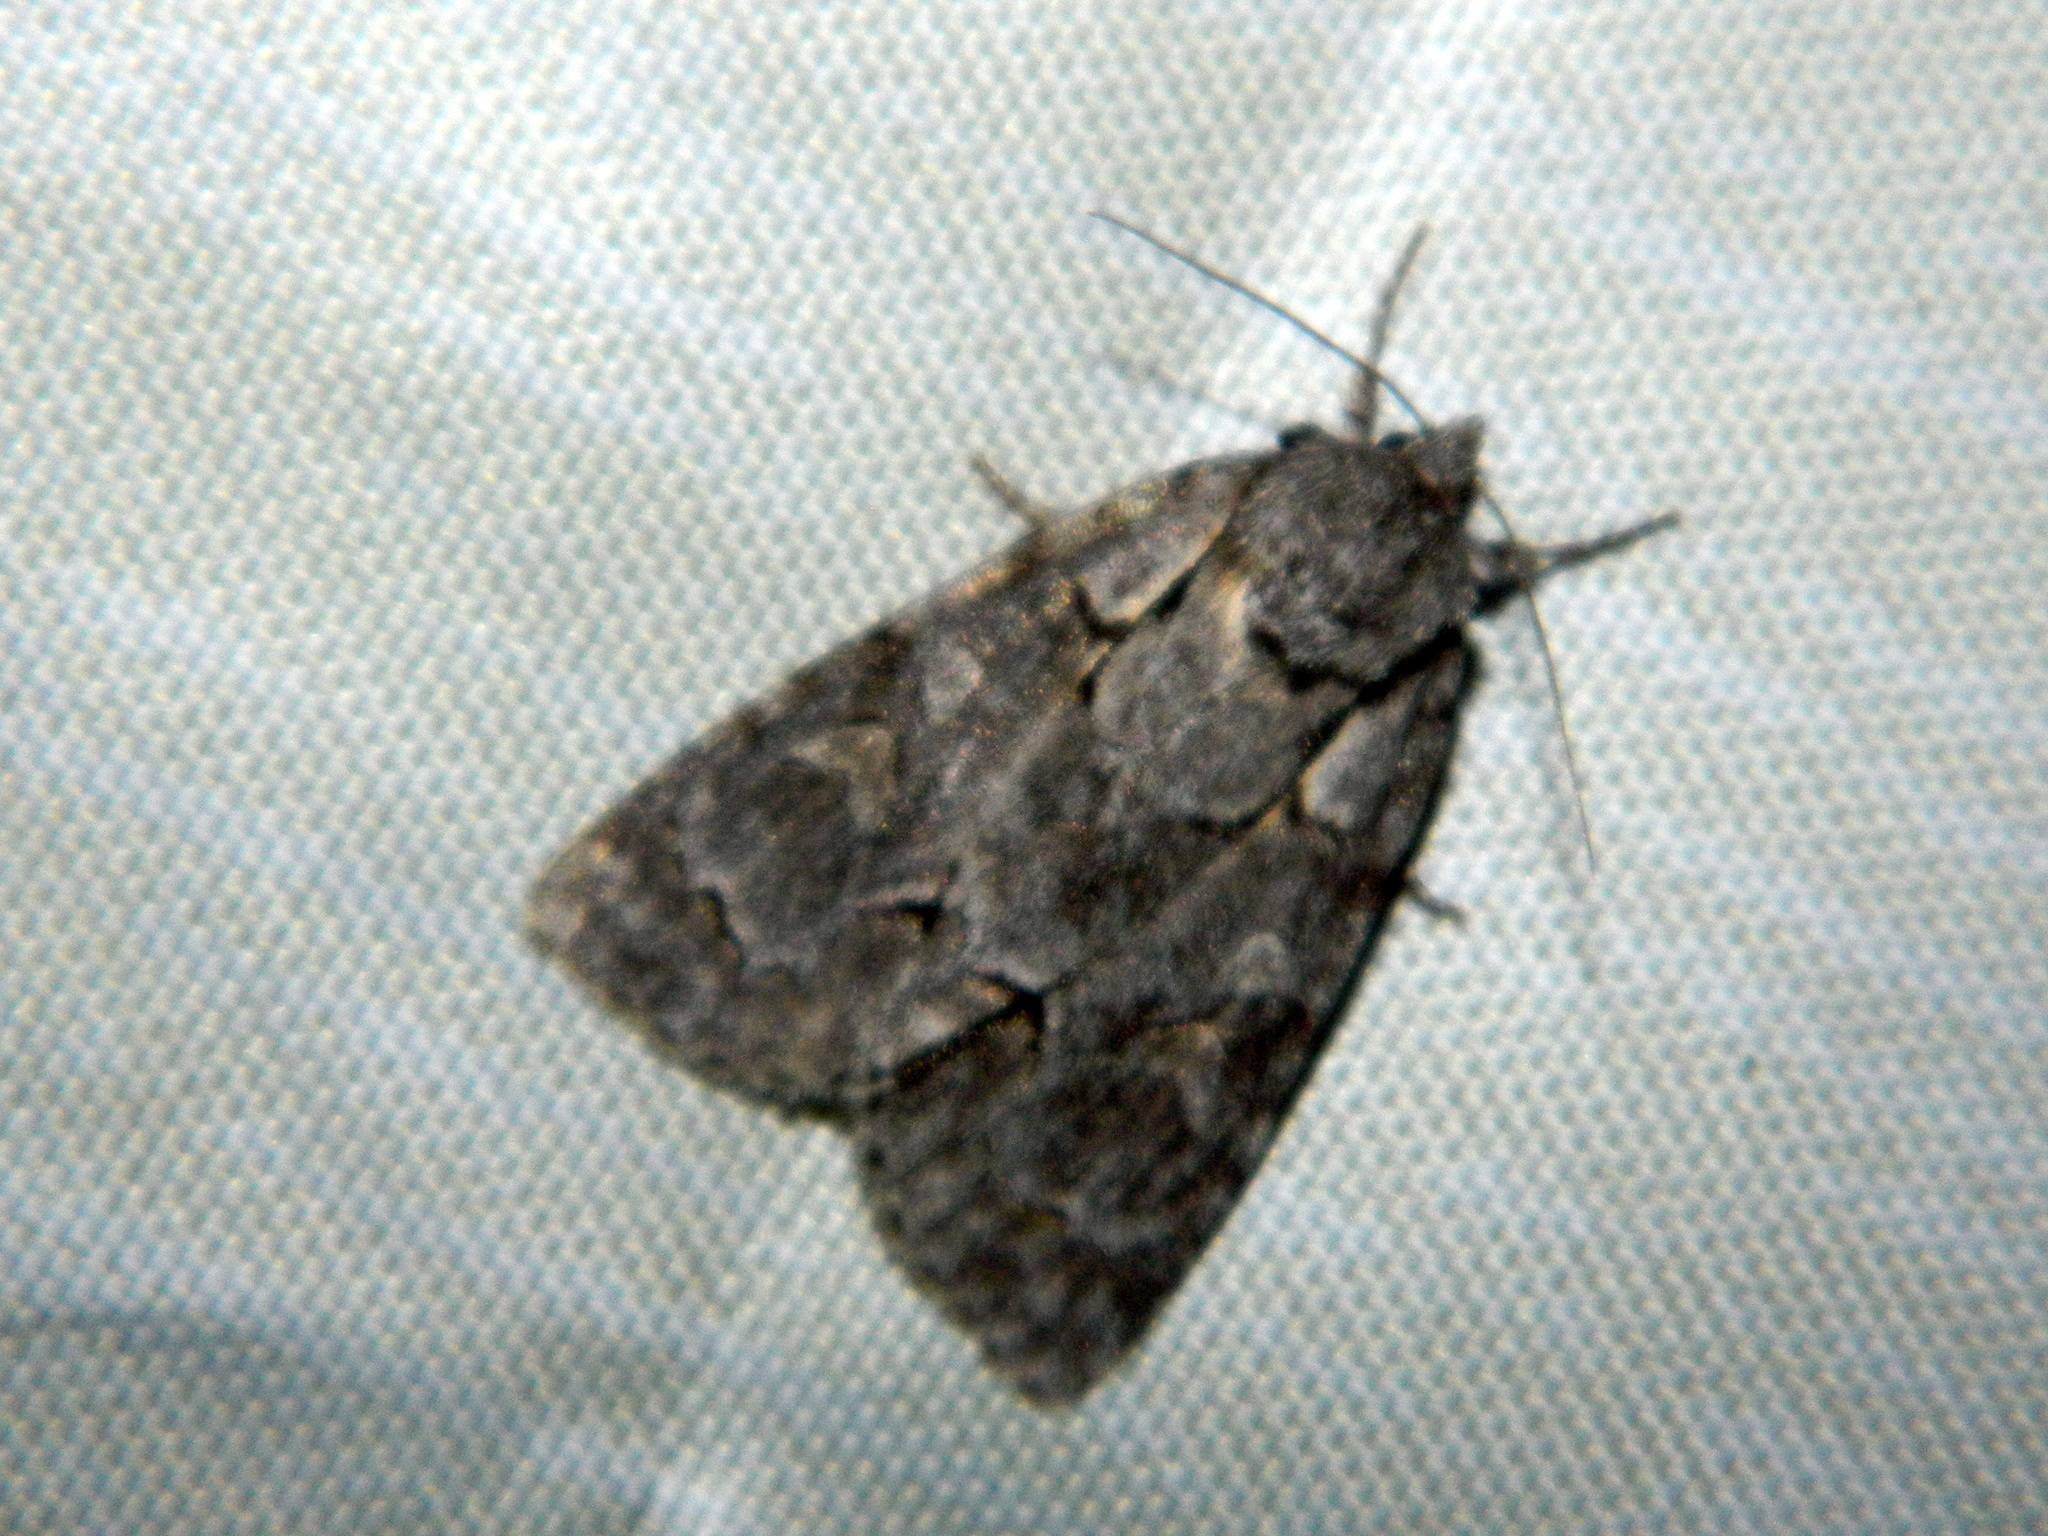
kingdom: Animalia
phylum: Arthropoda
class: Insecta
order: Lepidoptera
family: Noctuidae
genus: Acronicta
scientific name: Acronicta grisea
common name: Gray dagger
